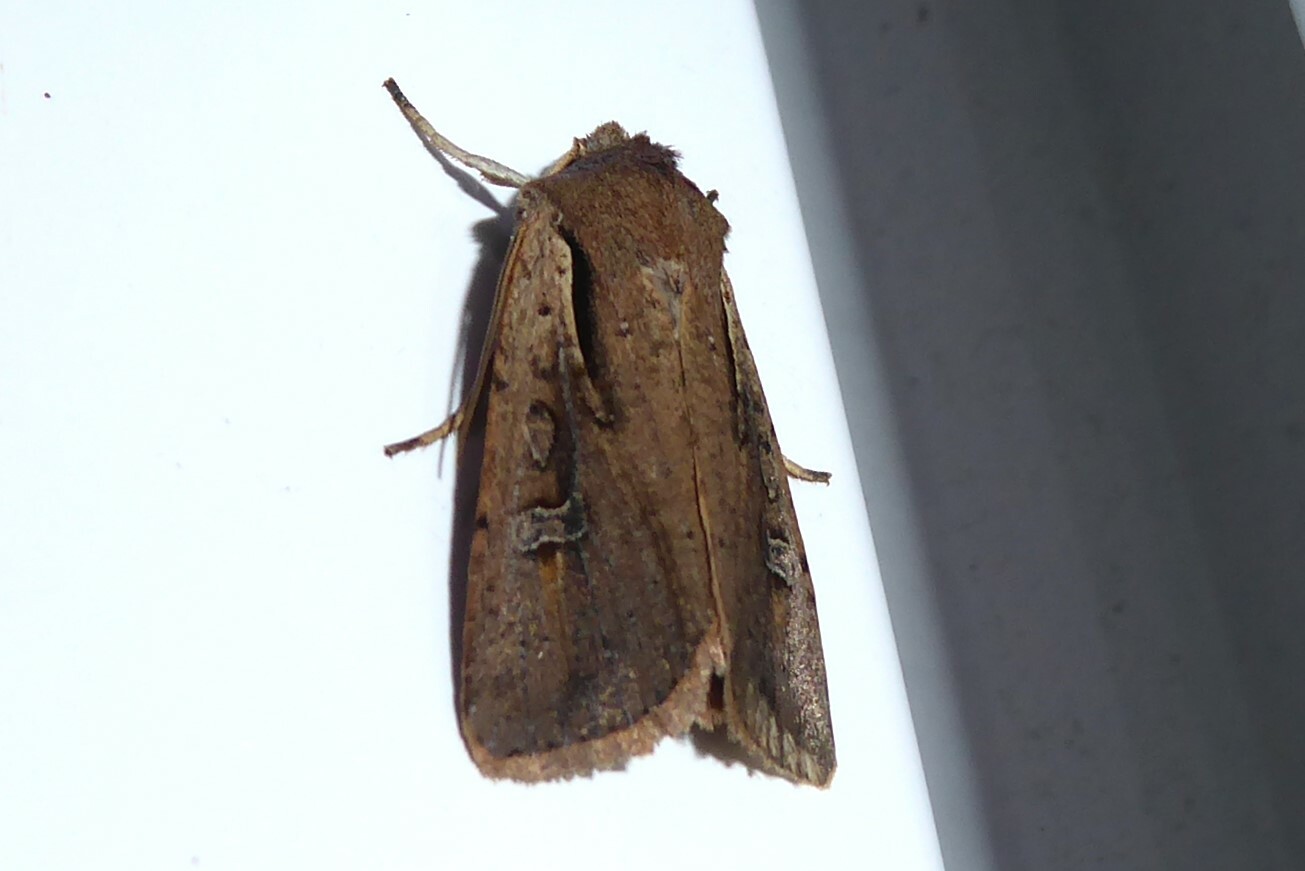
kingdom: Animalia
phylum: Arthropoda
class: Insecta
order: Lepidoptera
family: Noctuidae
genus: Ichneutica
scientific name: Ichneutica atristriga
